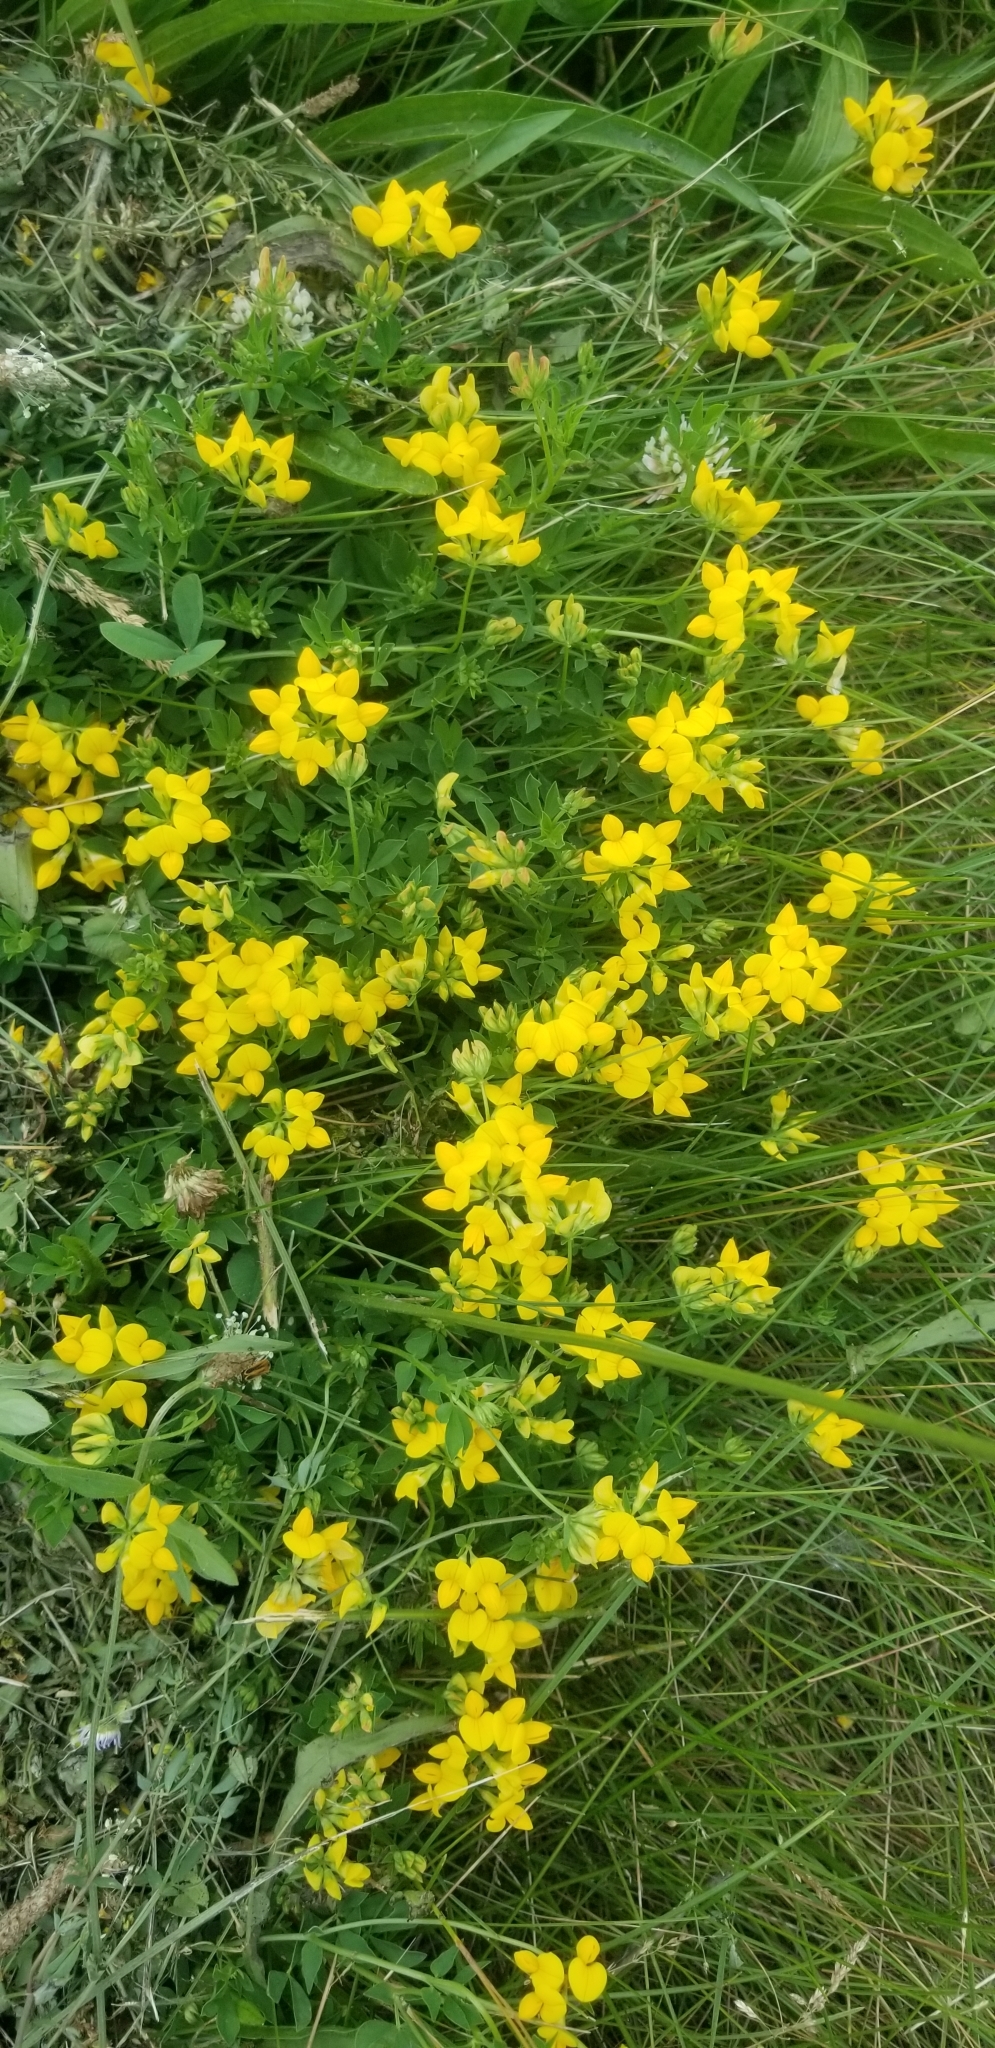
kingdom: Plantae
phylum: Tracheophyta
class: Magnoliopsida
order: Fabales
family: Fabaceae
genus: Lotus
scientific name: Lotus corniculatus
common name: Common bird's-foot-trefoil
